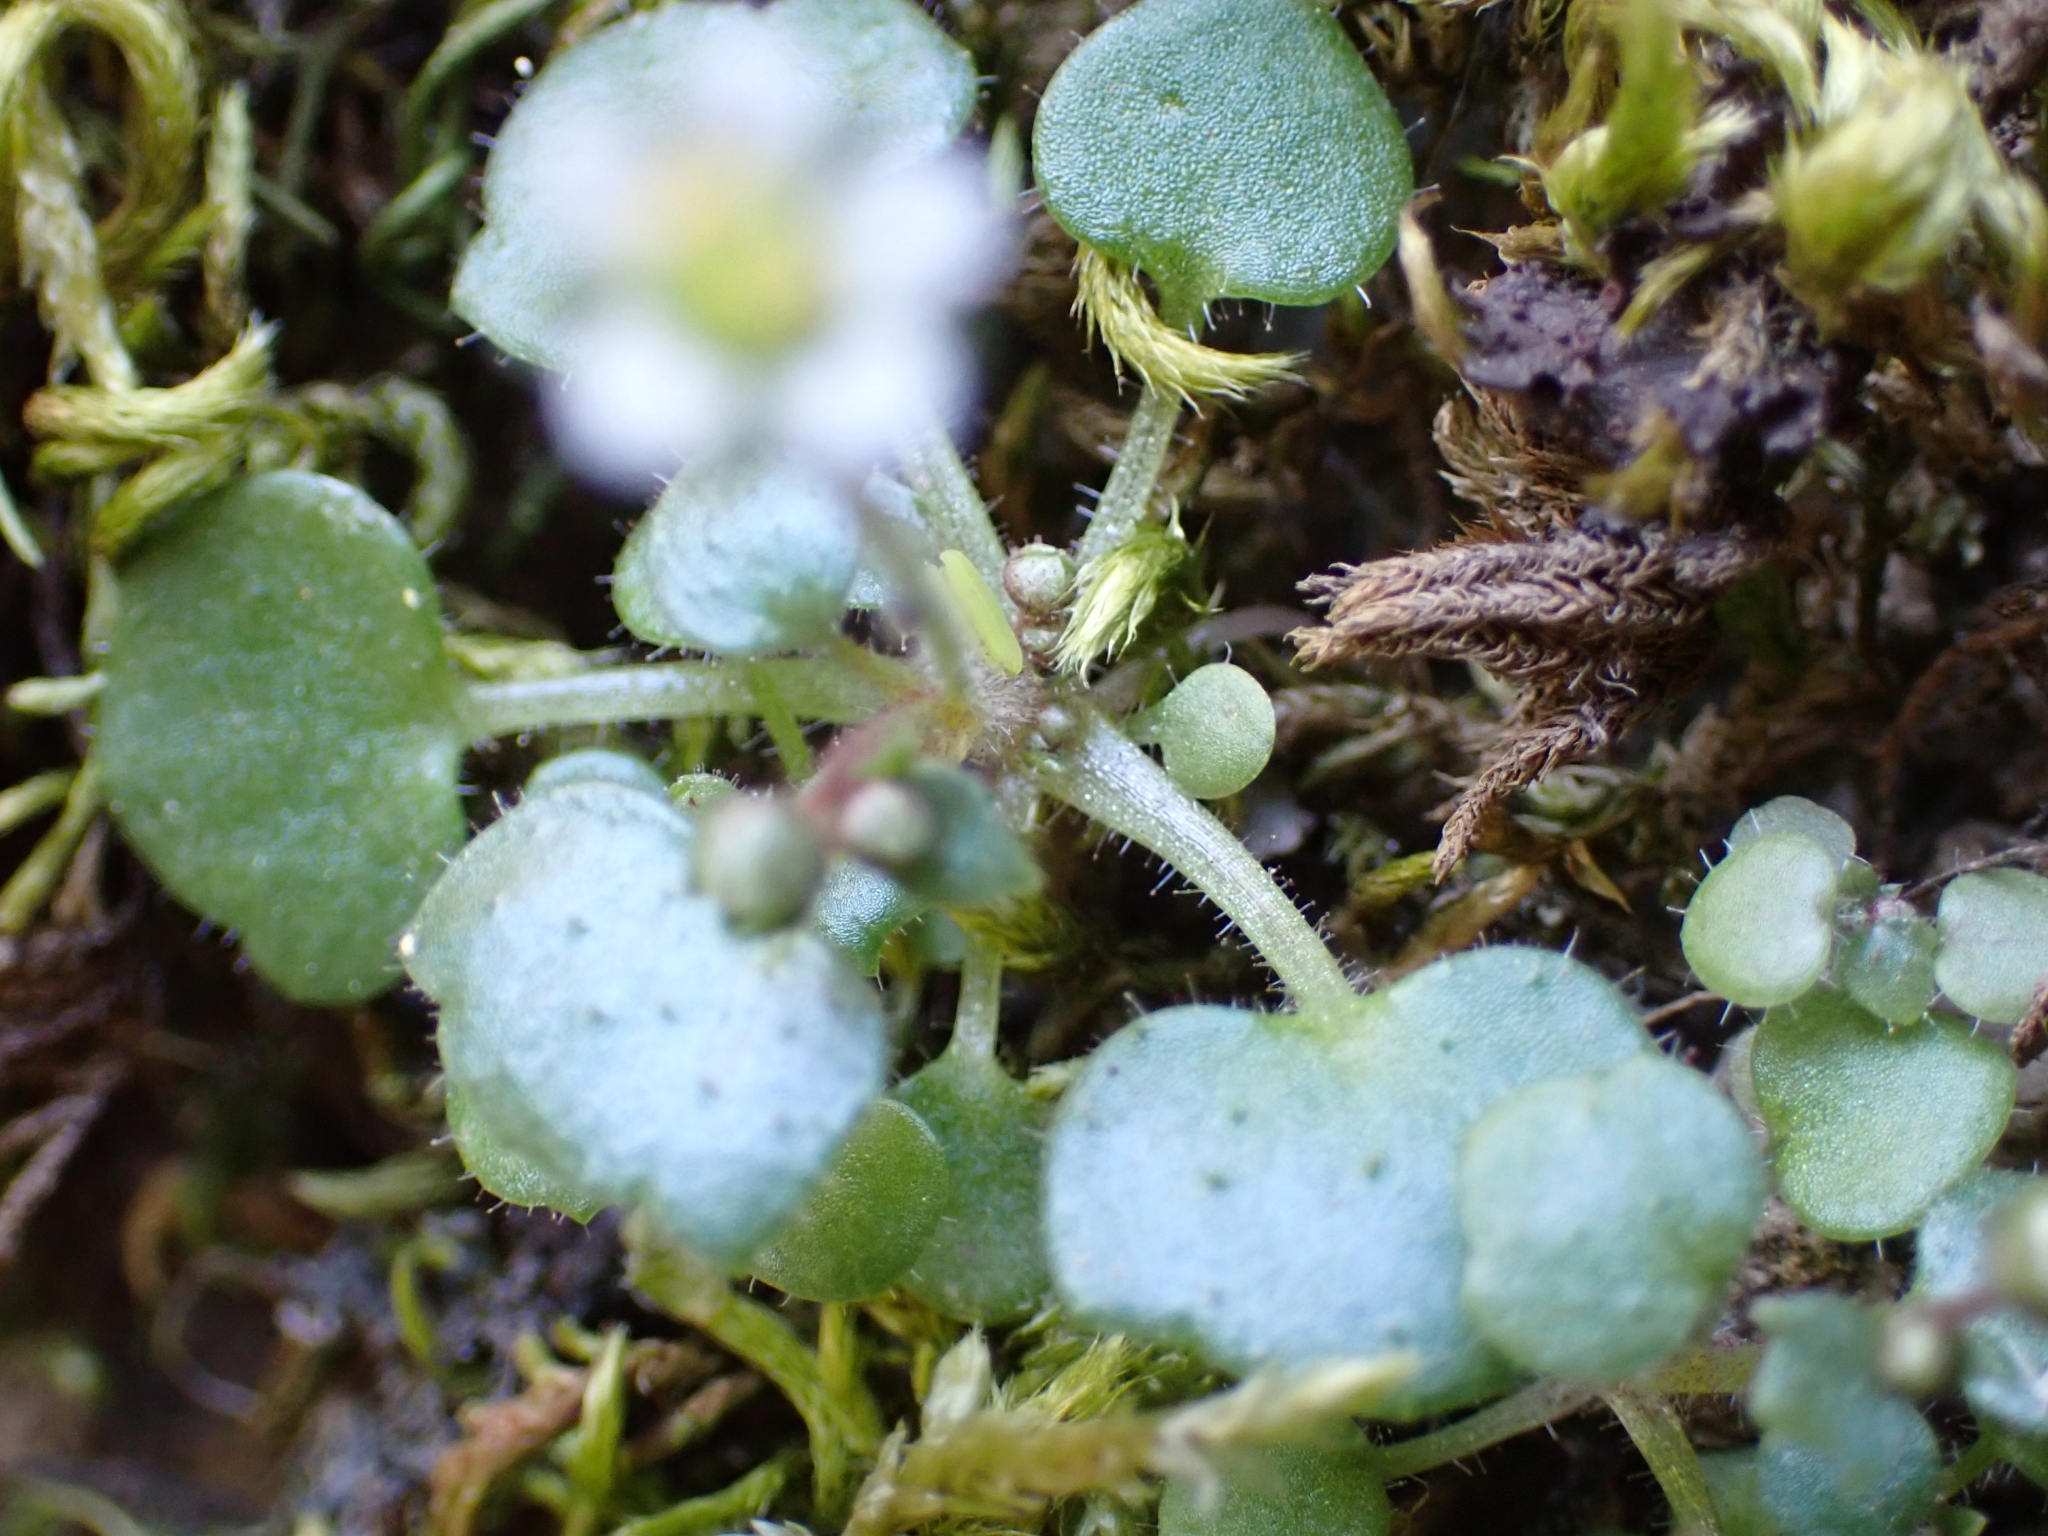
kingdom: Plantae
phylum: Tracheophyta
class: Magnoliopsida
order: Saxifragales
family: Saxifragaceae
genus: Saxifraga
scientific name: Saxifraga hederacea
